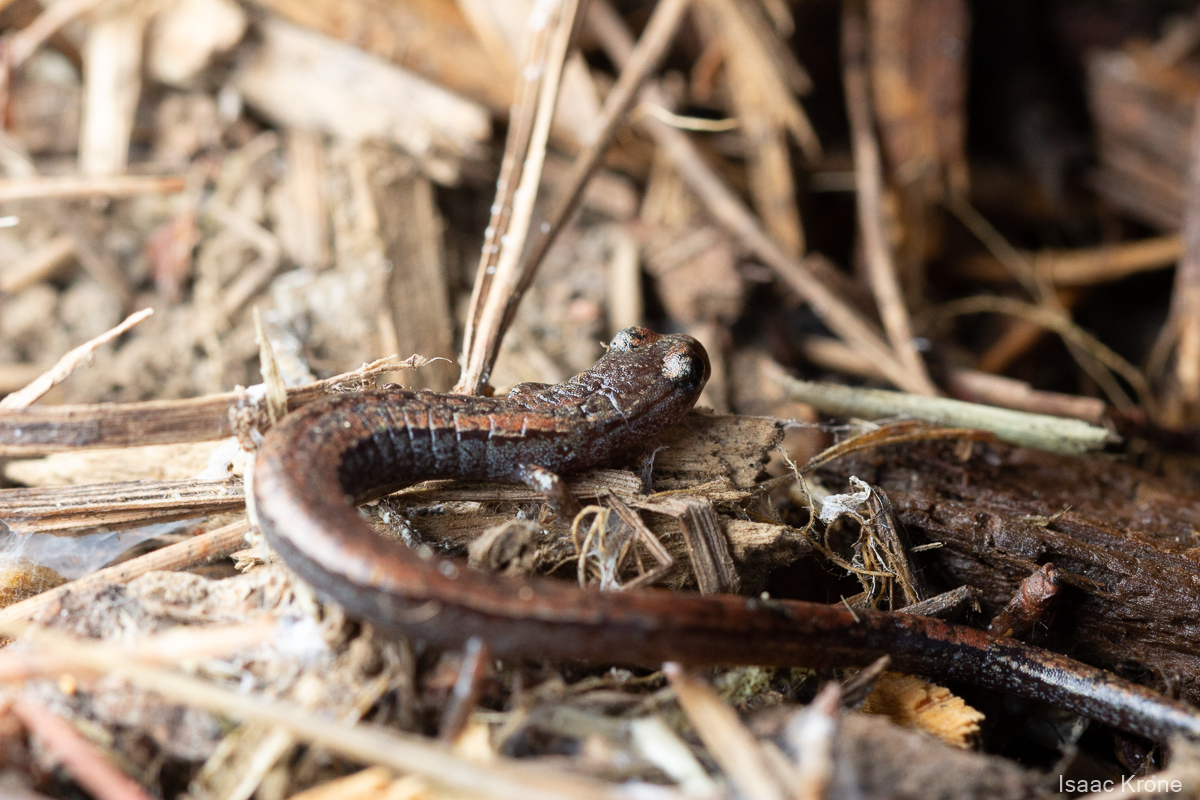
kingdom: Animalia
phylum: Chordata
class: Amphibia
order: Caudata
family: Plethodontidae
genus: Batrachoseps
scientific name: Batrachoseps attenuatus
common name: California slender salamander
